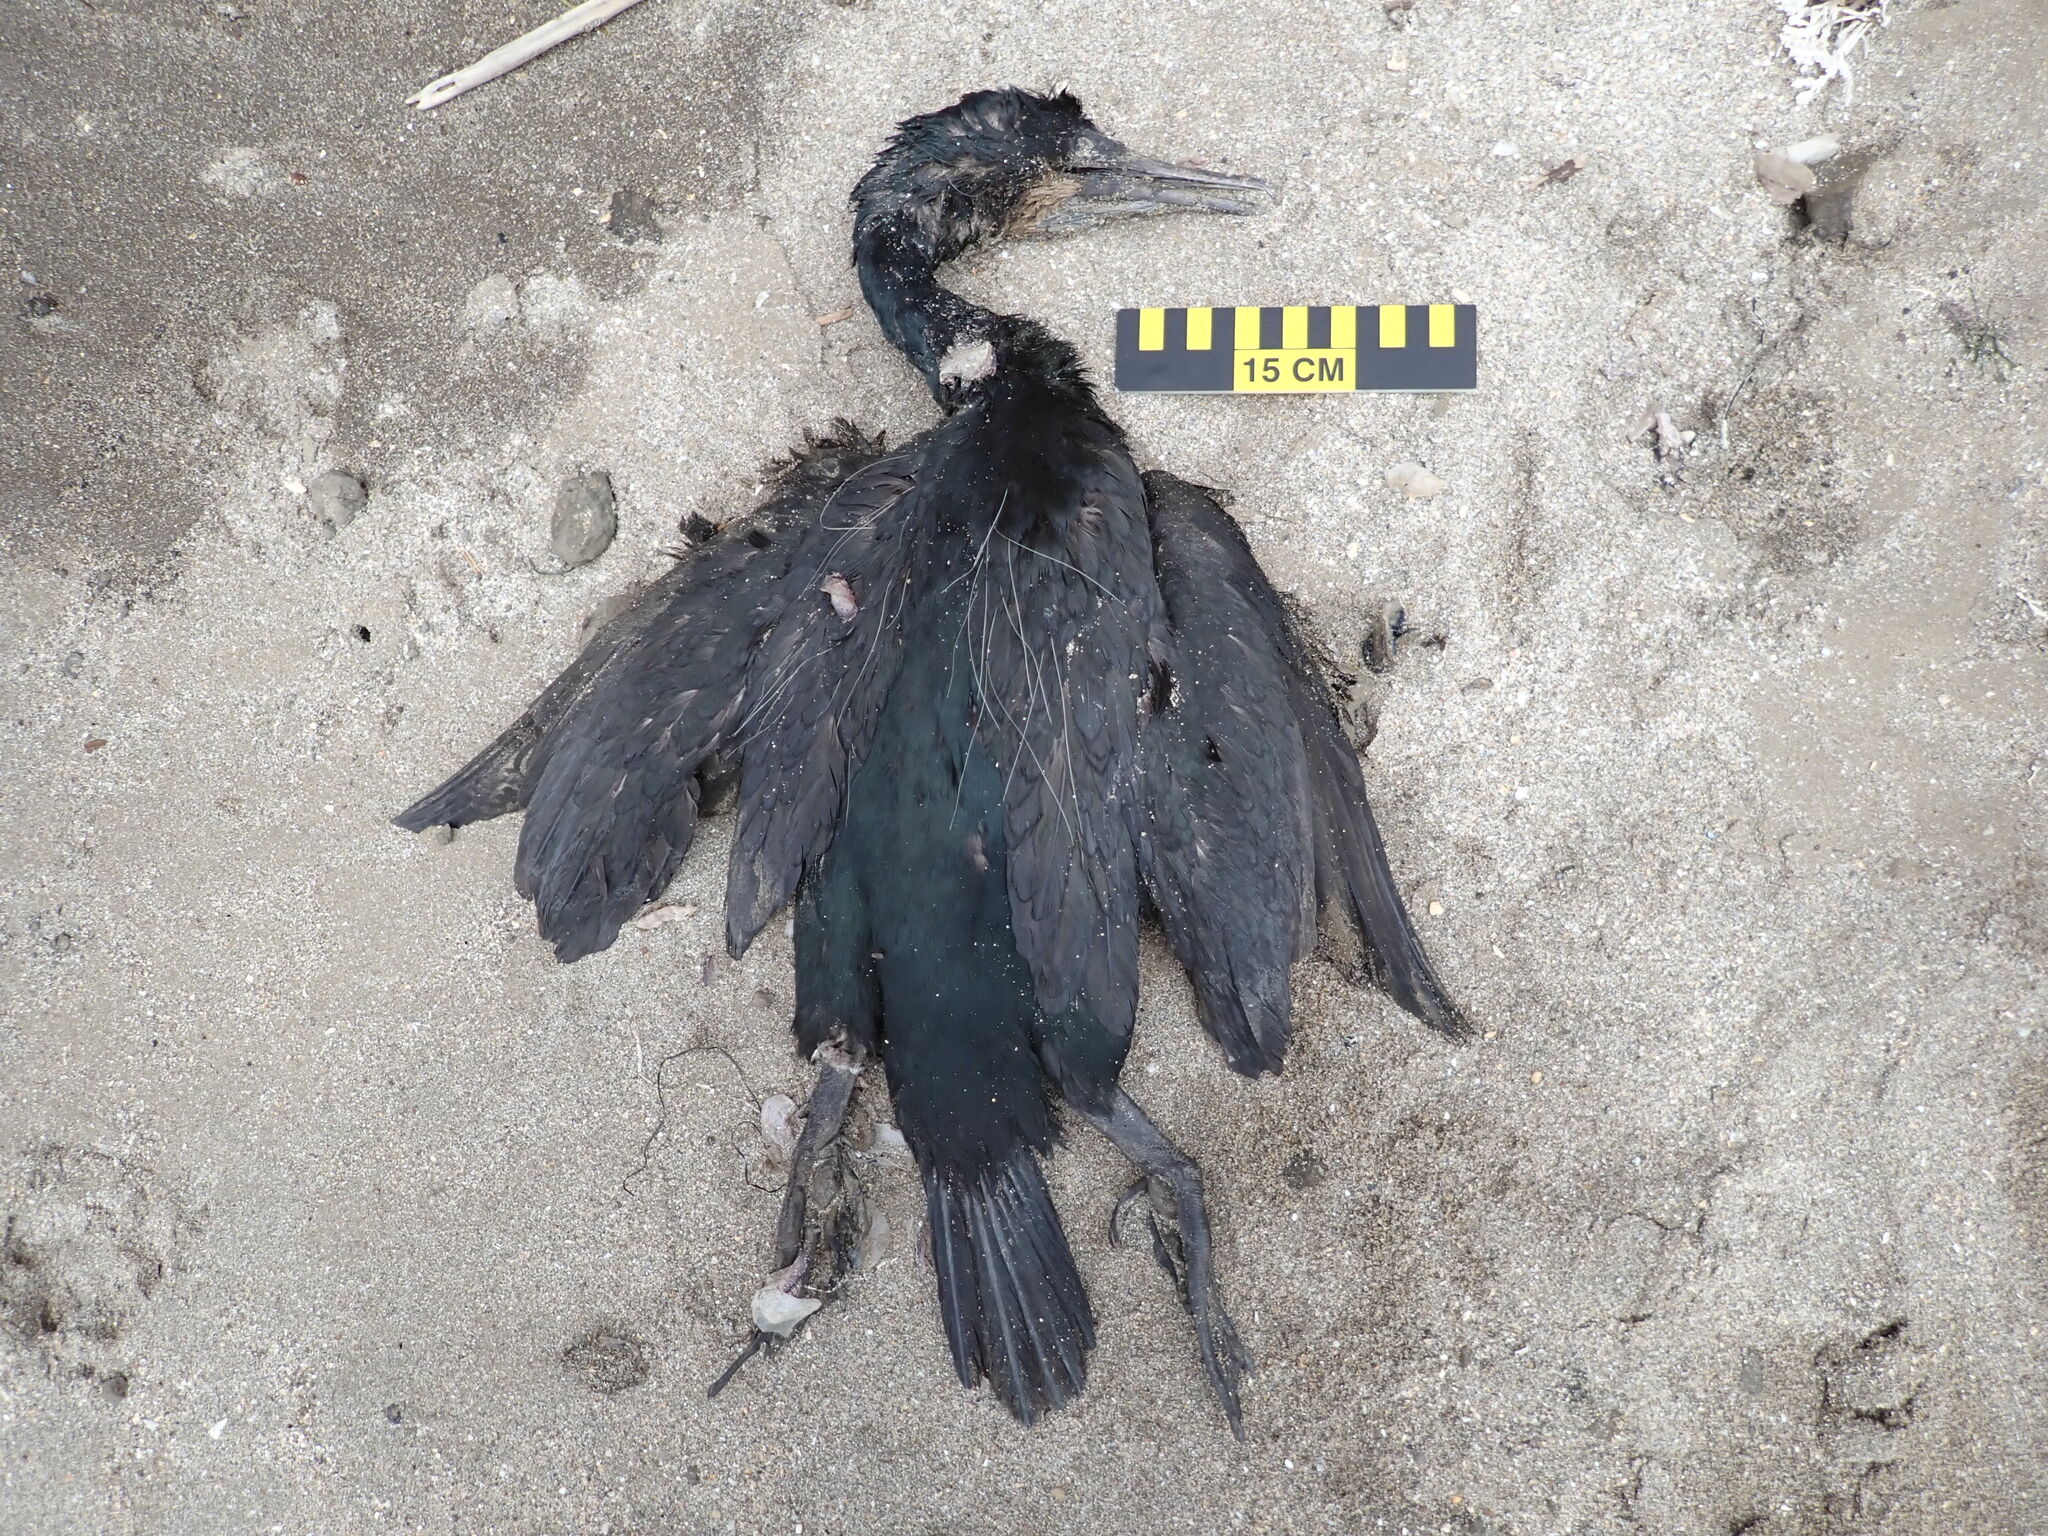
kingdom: Animalia
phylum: Chordata
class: Aves
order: Suliformes
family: Phalacrocoracidae
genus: Urile
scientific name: Urile penicillatus
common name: Brandt's cormorant
